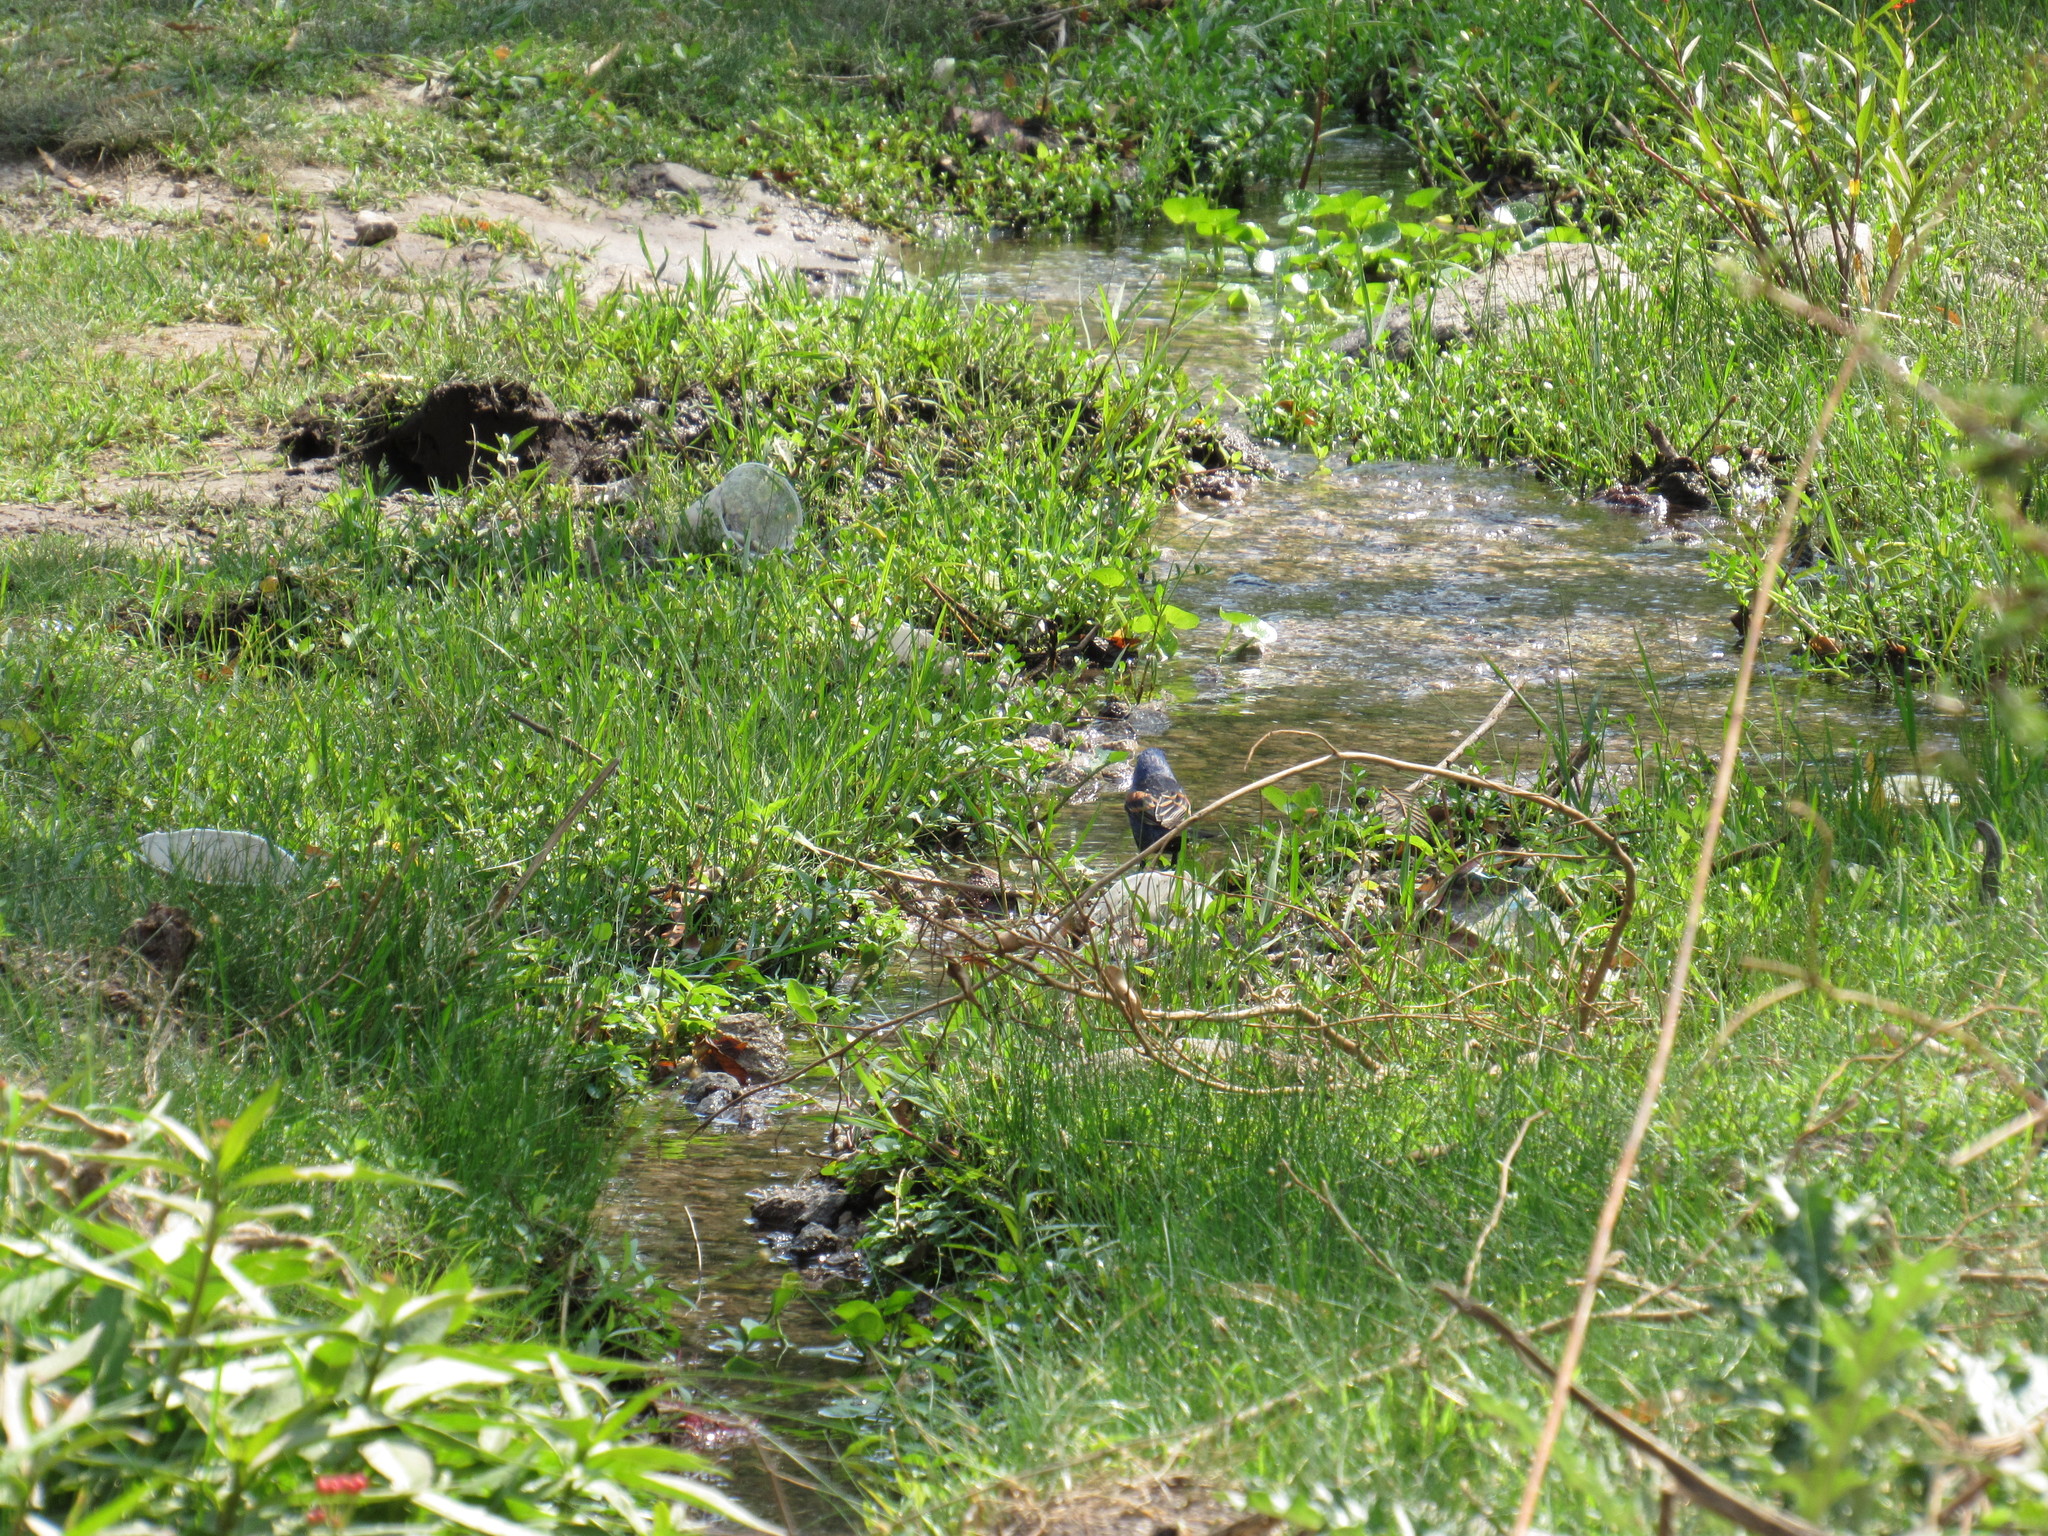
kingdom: Animalia
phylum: Chordata
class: Aves
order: Passeriformes
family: Cardinalidae
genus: Passerina
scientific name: Passerina caerulea
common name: Blue grosbeak
